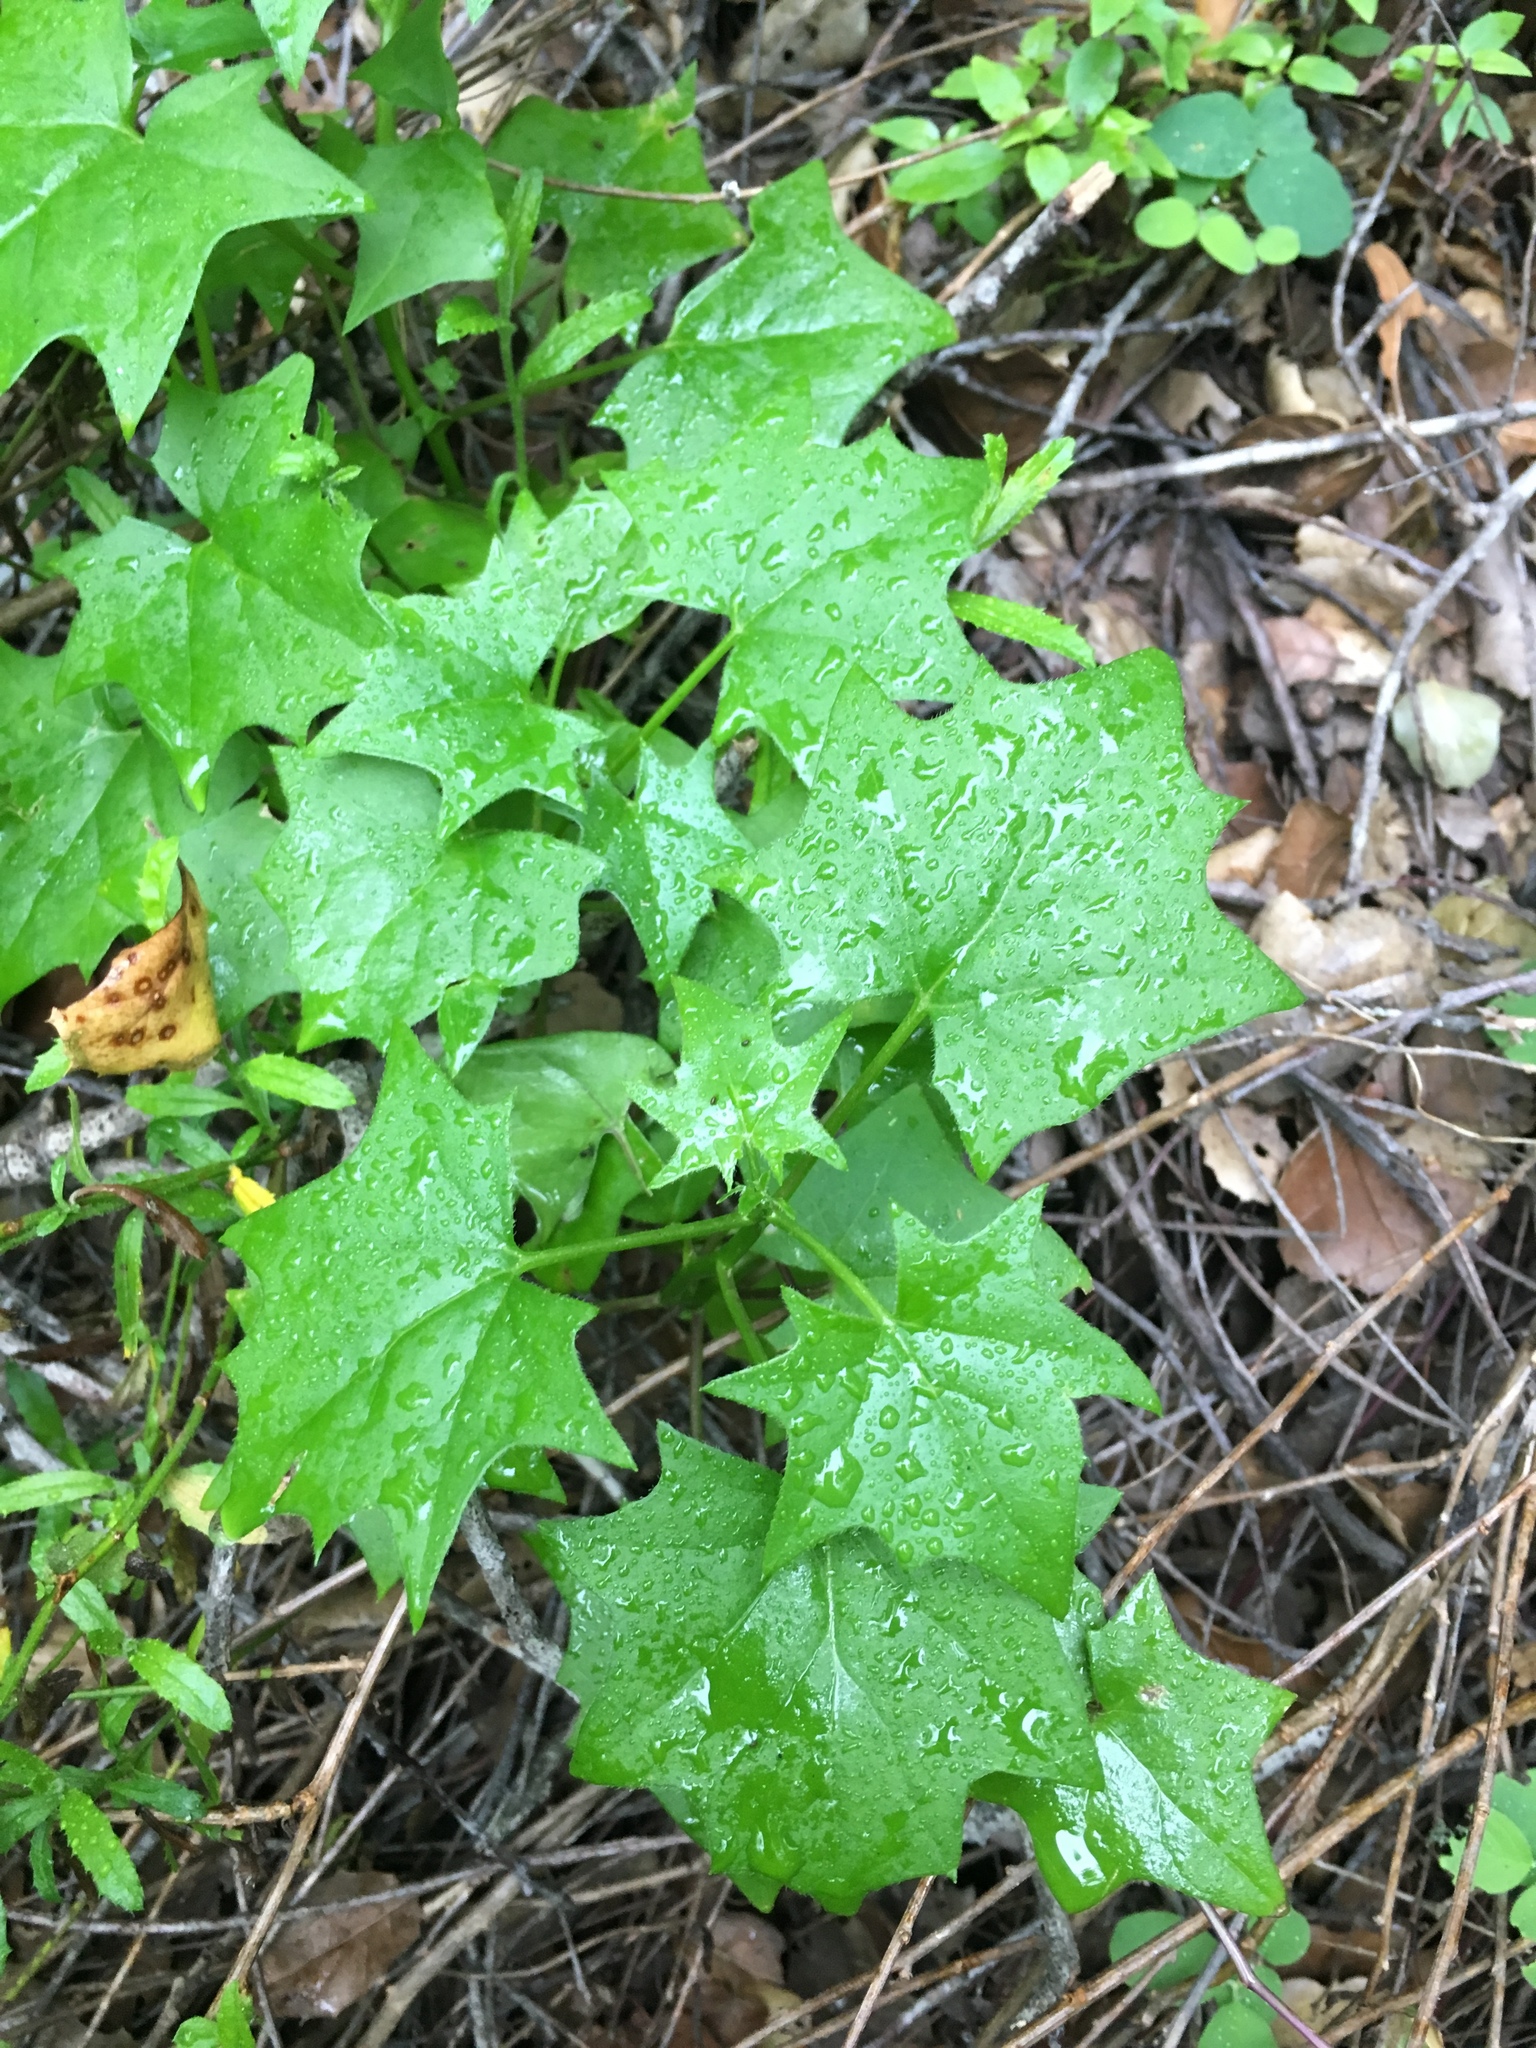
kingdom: Plantae
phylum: Tracheophyta
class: Magnoliopsida
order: Asterales
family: Asteraceae
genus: Delairea
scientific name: Delairea odorata
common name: Cape-ivy
